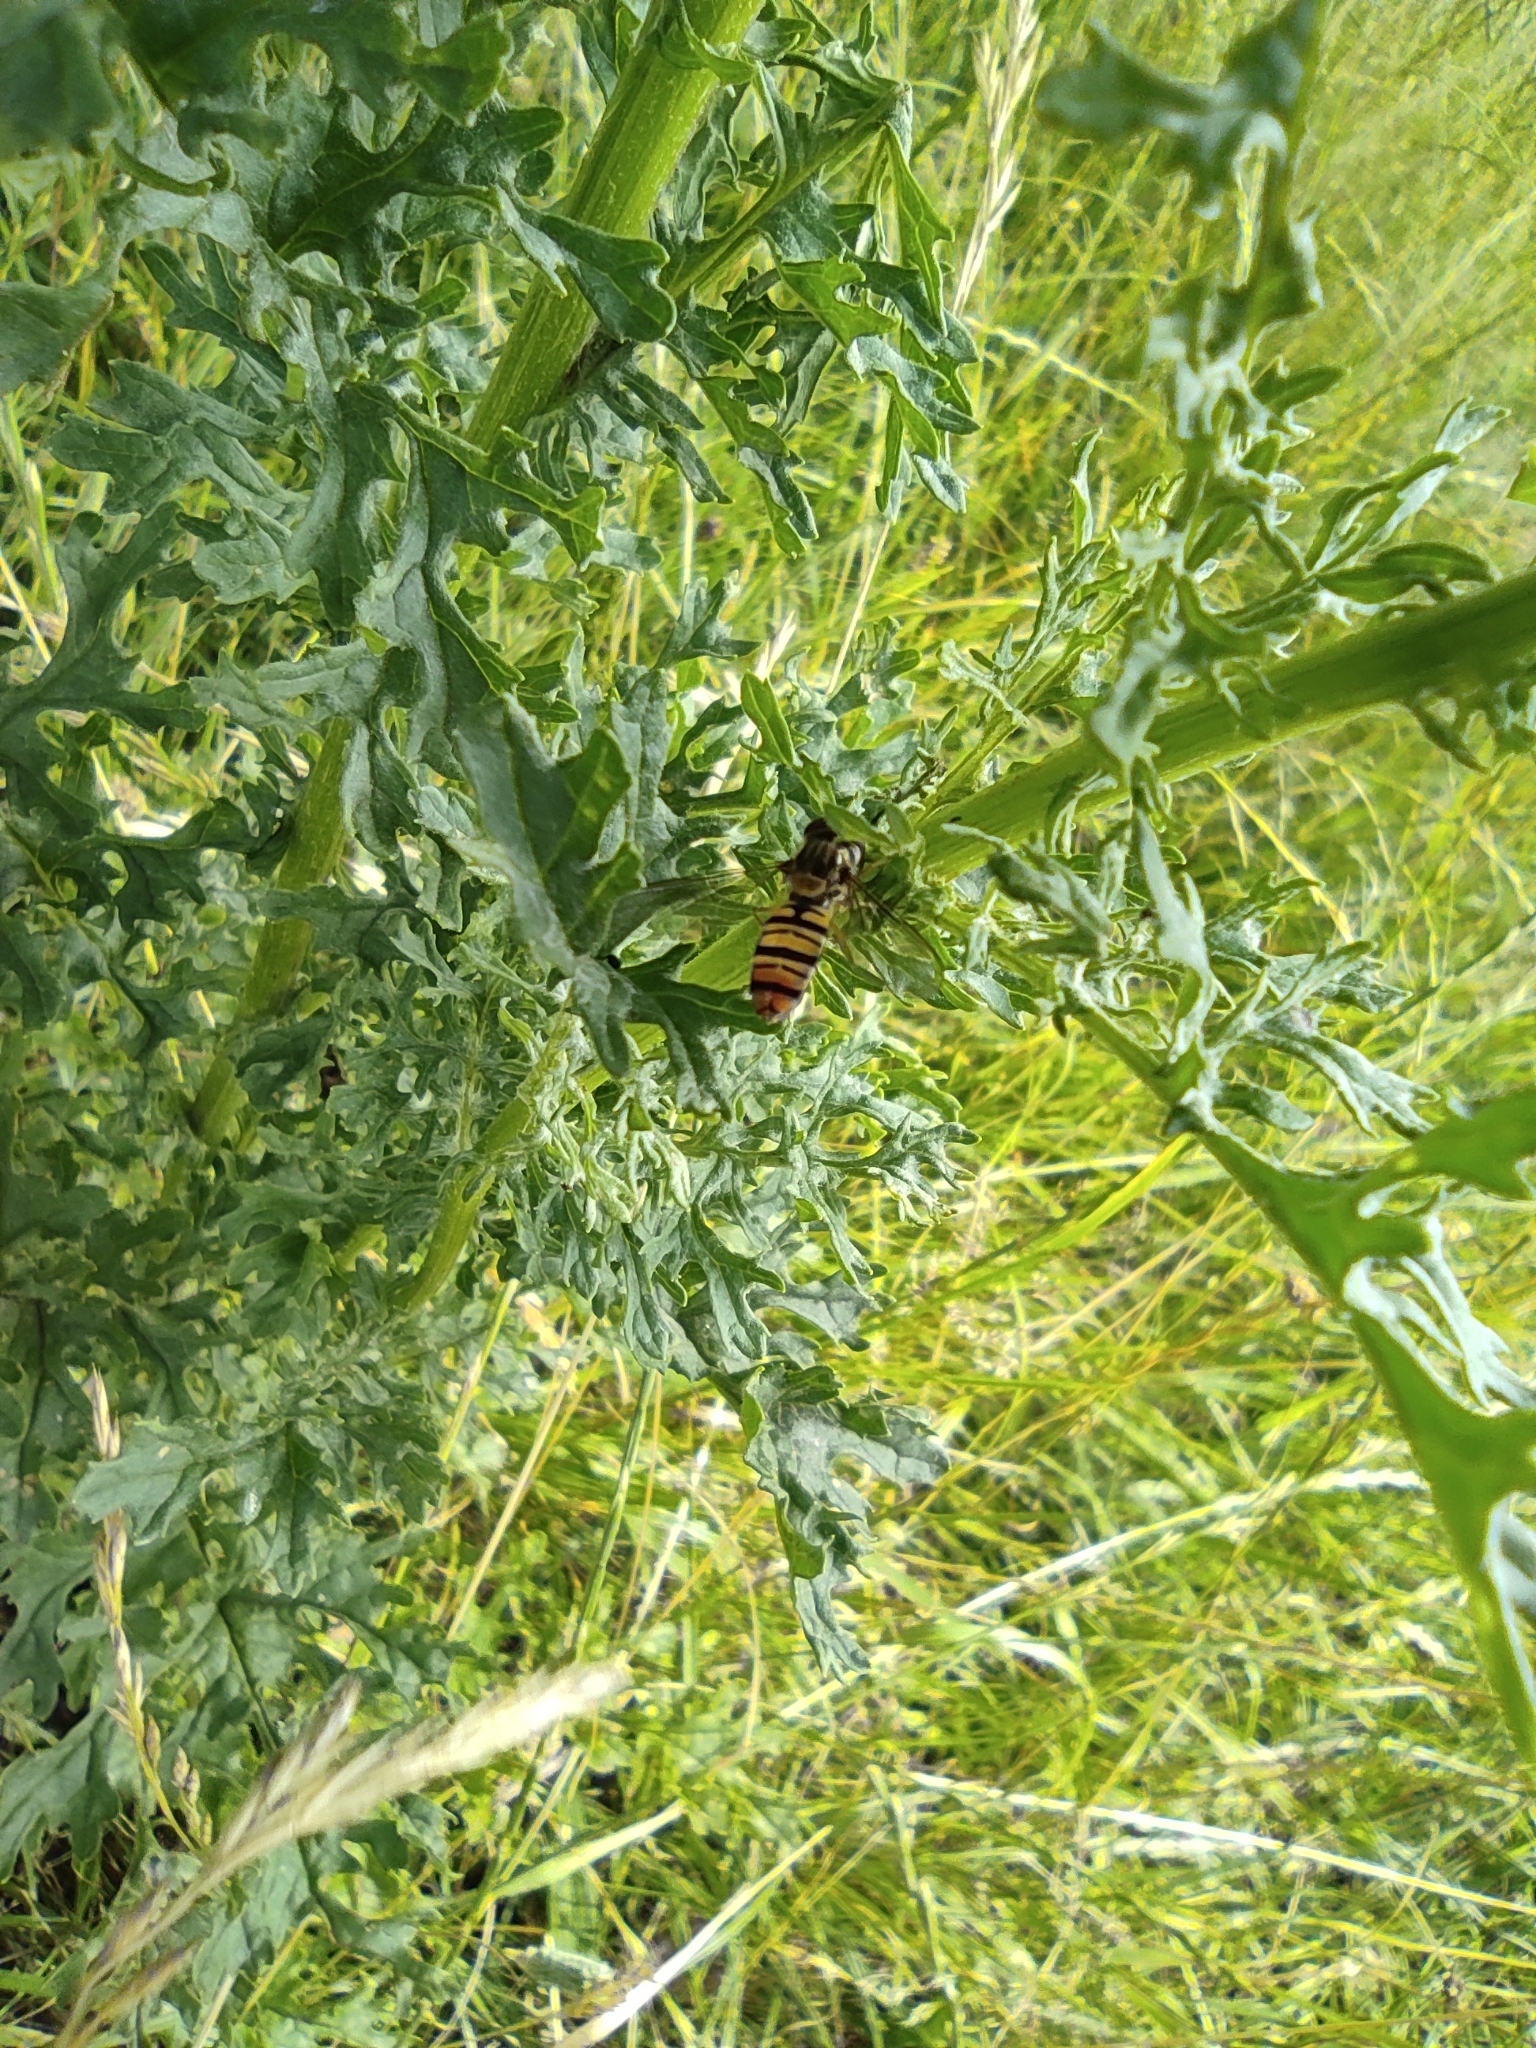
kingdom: Animalia
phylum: Arthropoda
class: Insecta
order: Diptera
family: Syrphidae
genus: Episyrphus
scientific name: Episyrphus balteatus
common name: Marmalade hoverfly
